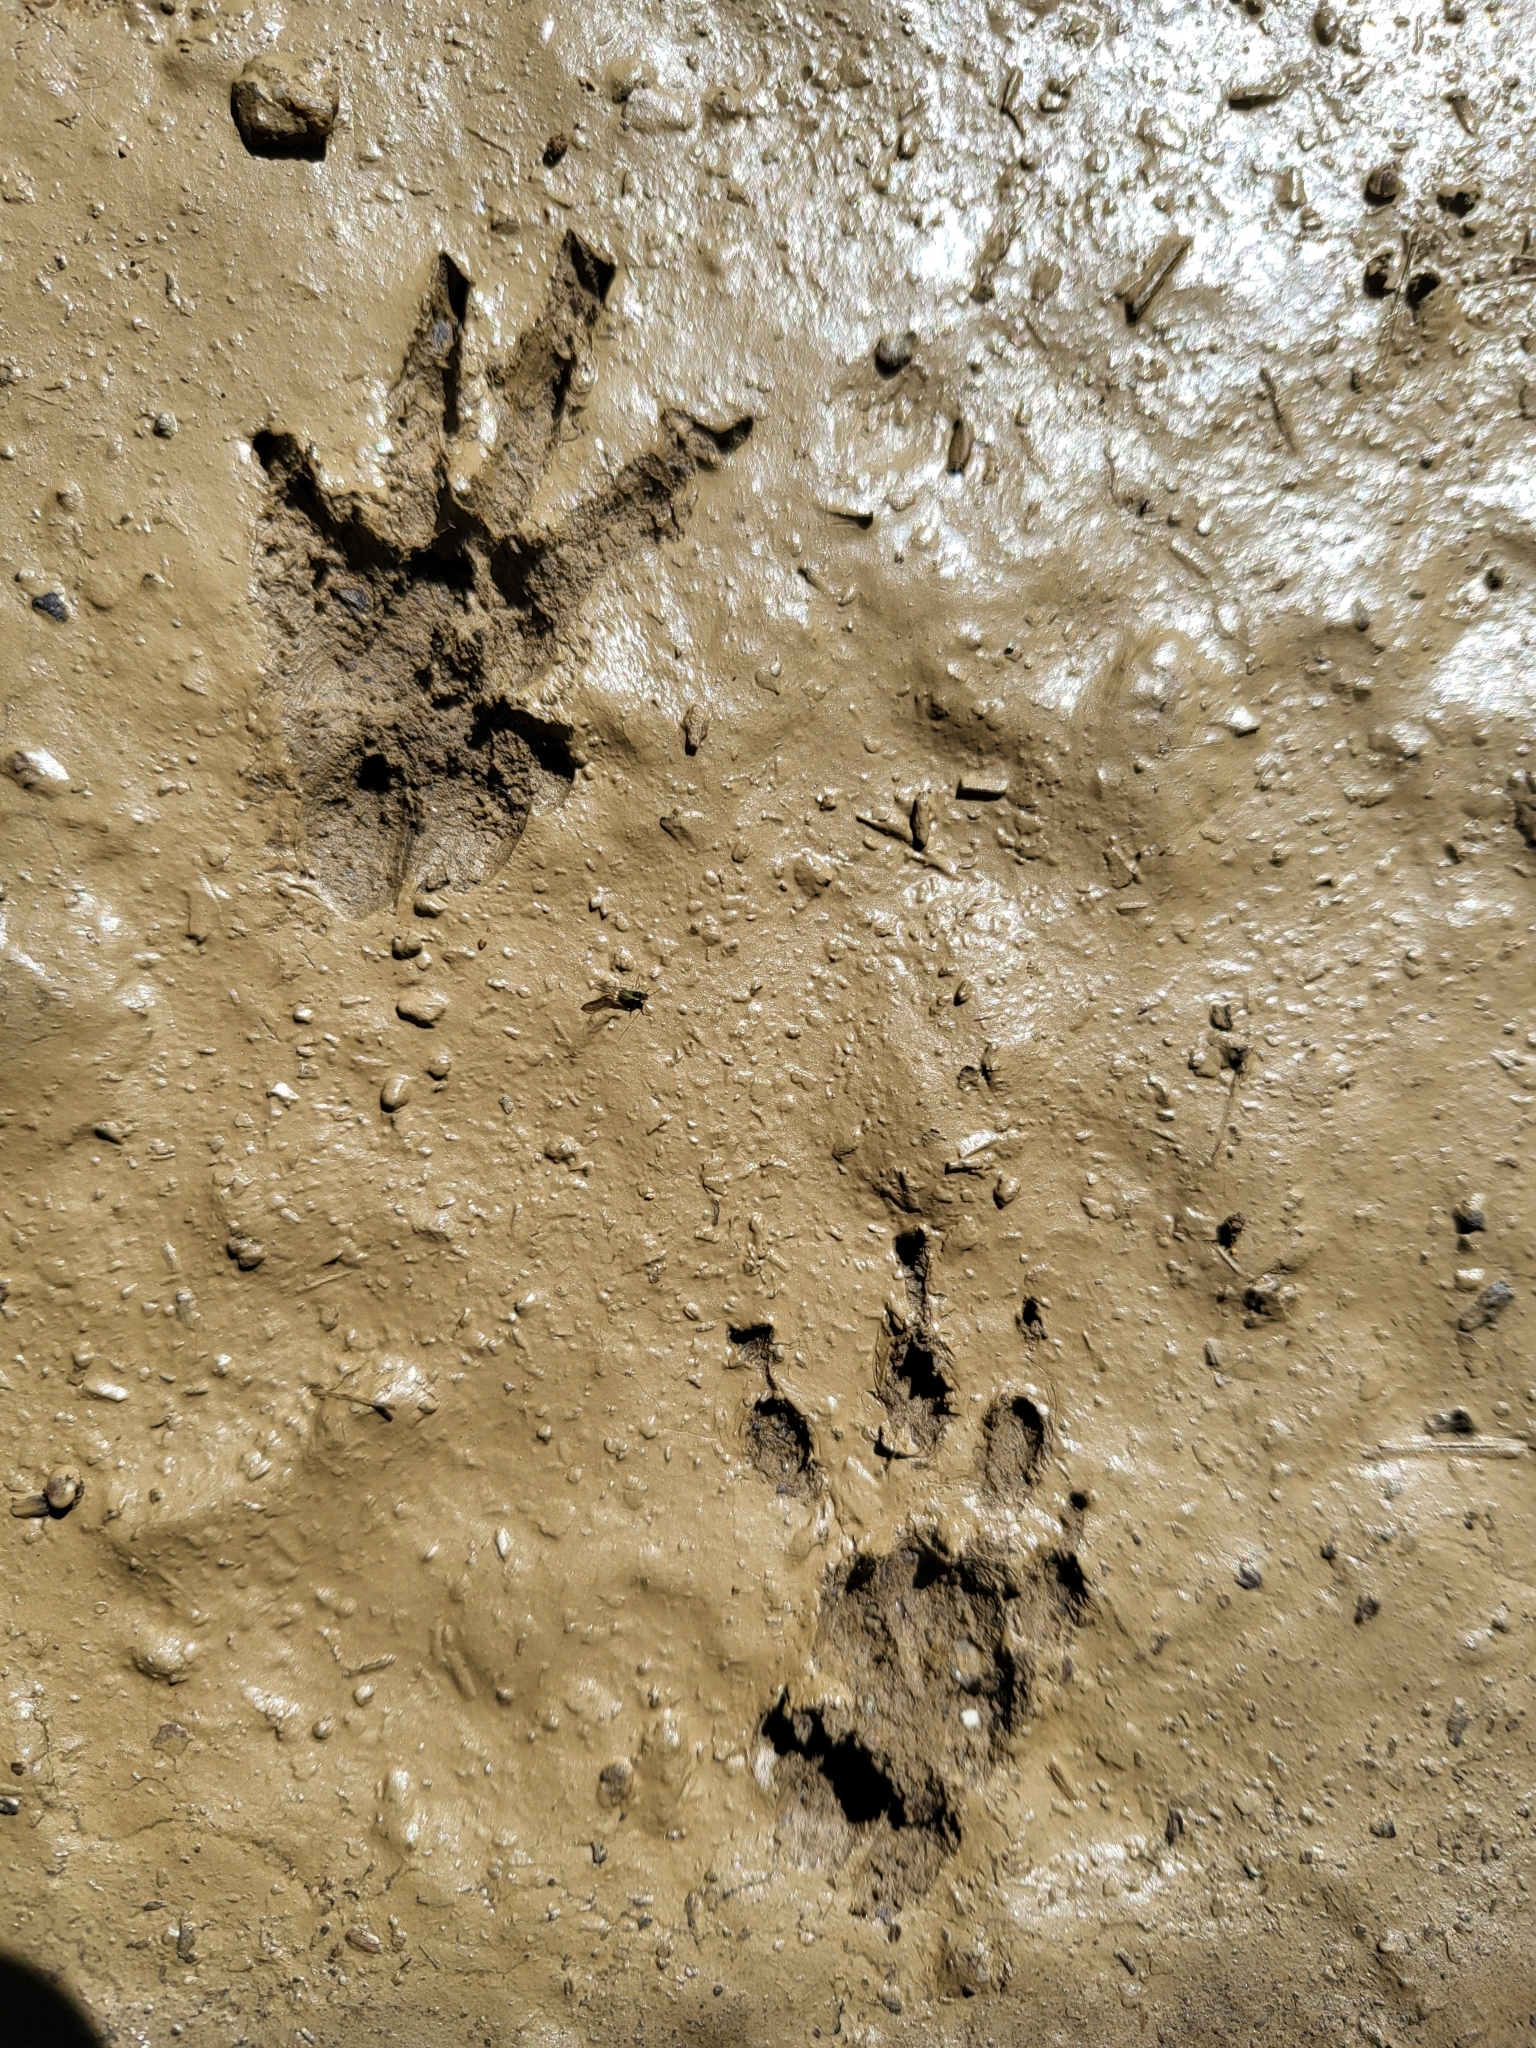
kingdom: Animalia
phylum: Chordata
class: Mammalia
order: Rodentia
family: Sciuridae
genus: Otospermophilus
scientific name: Otospermophilus beecheyi
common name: California ground squirrel
